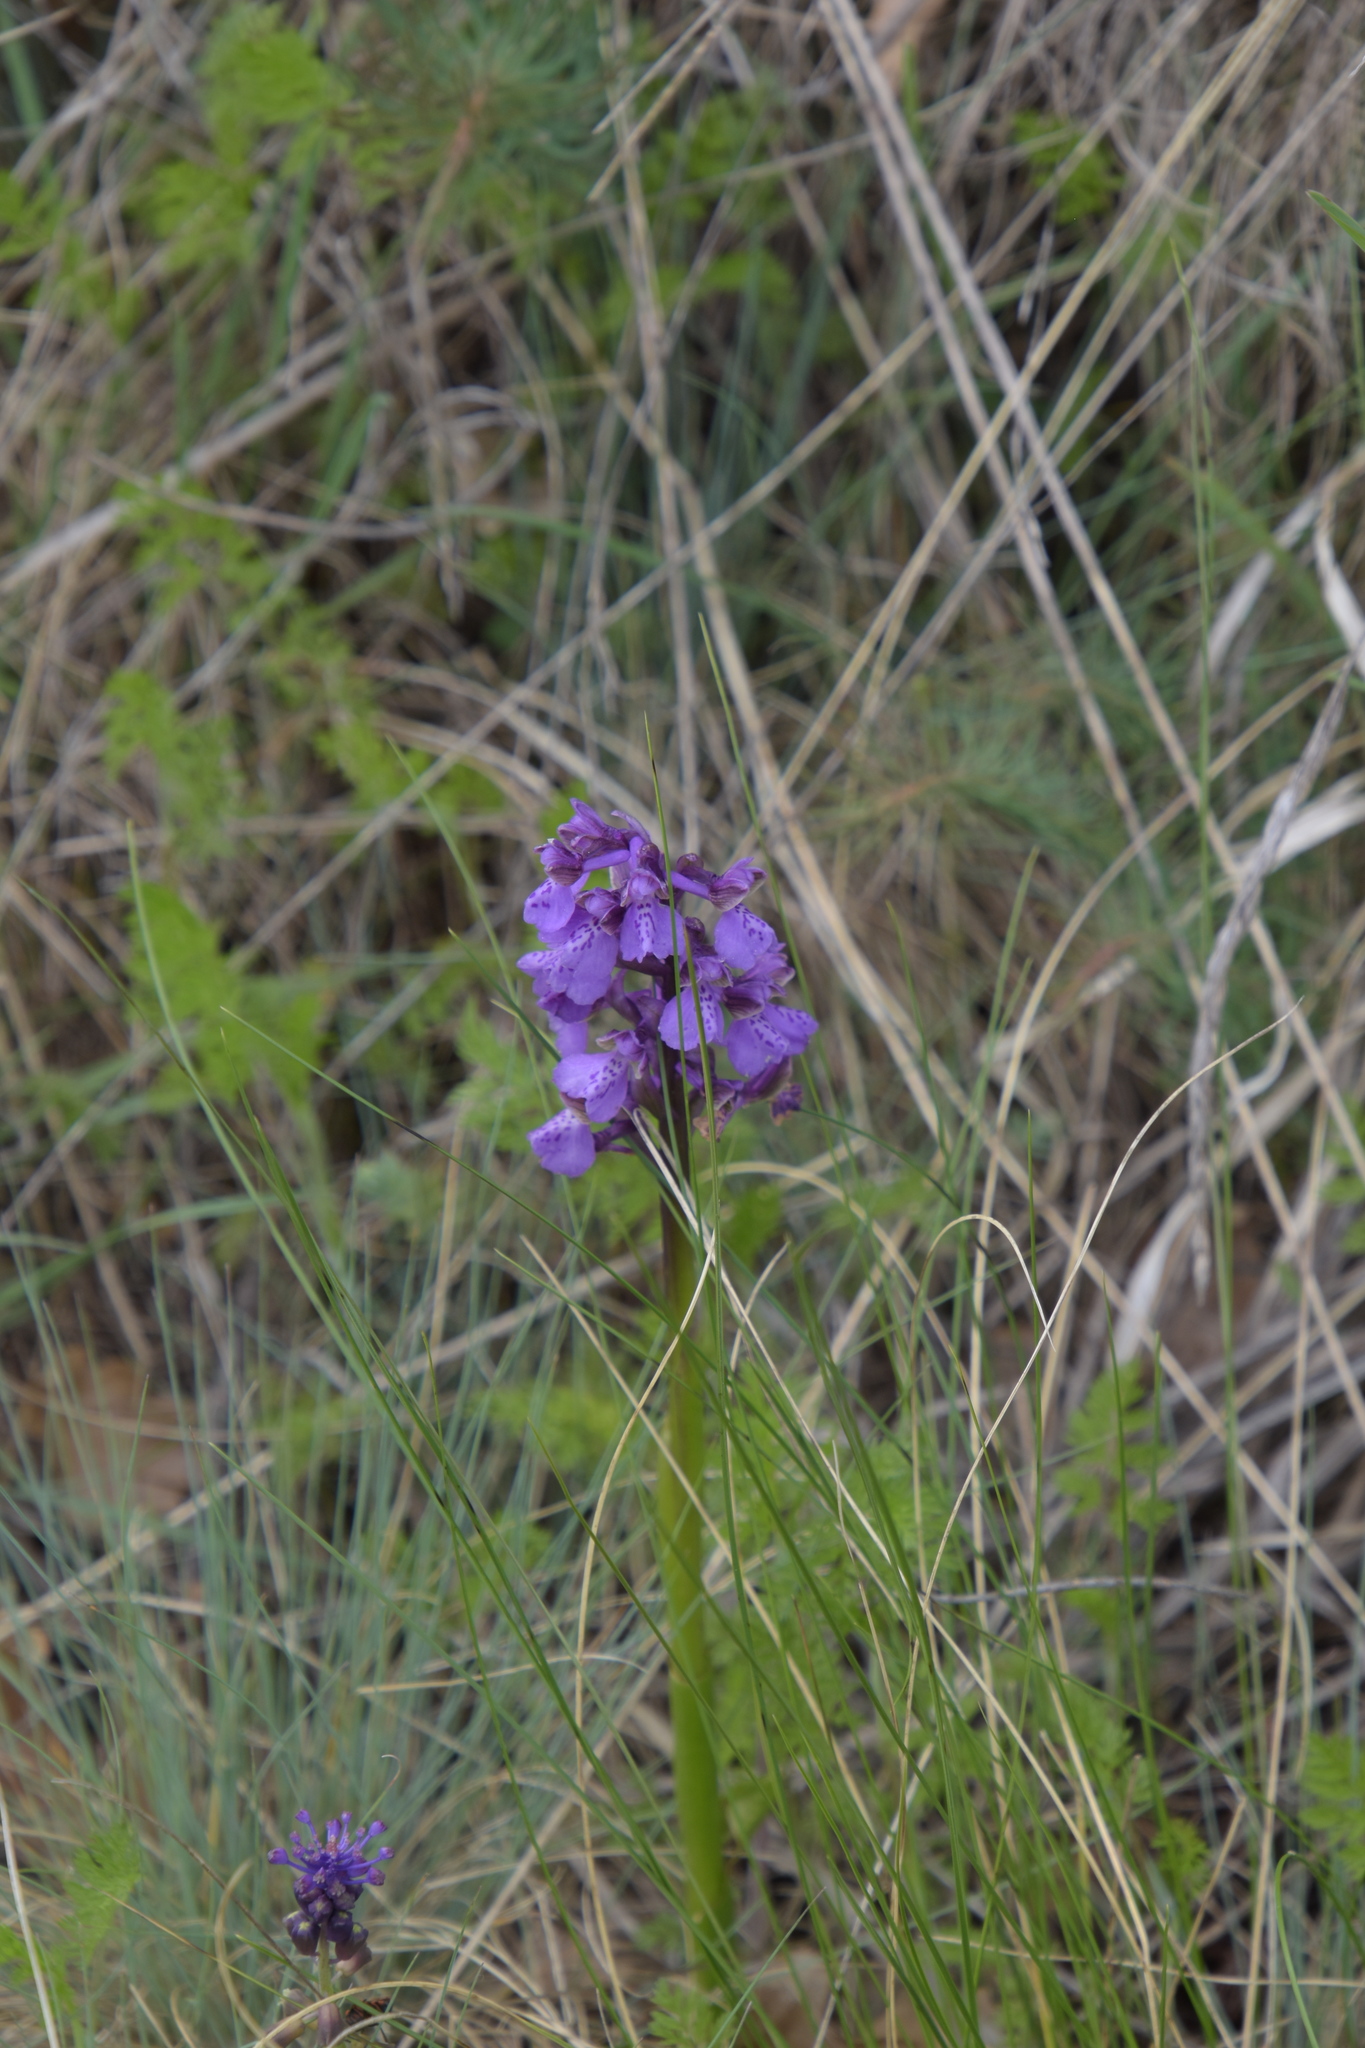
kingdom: Plantae
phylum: Tracheophyta
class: Liliopsida
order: Asparagales
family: Orchidaceae
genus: Anacamptis
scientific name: Anacamptis morio
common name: Green-winged orchid
